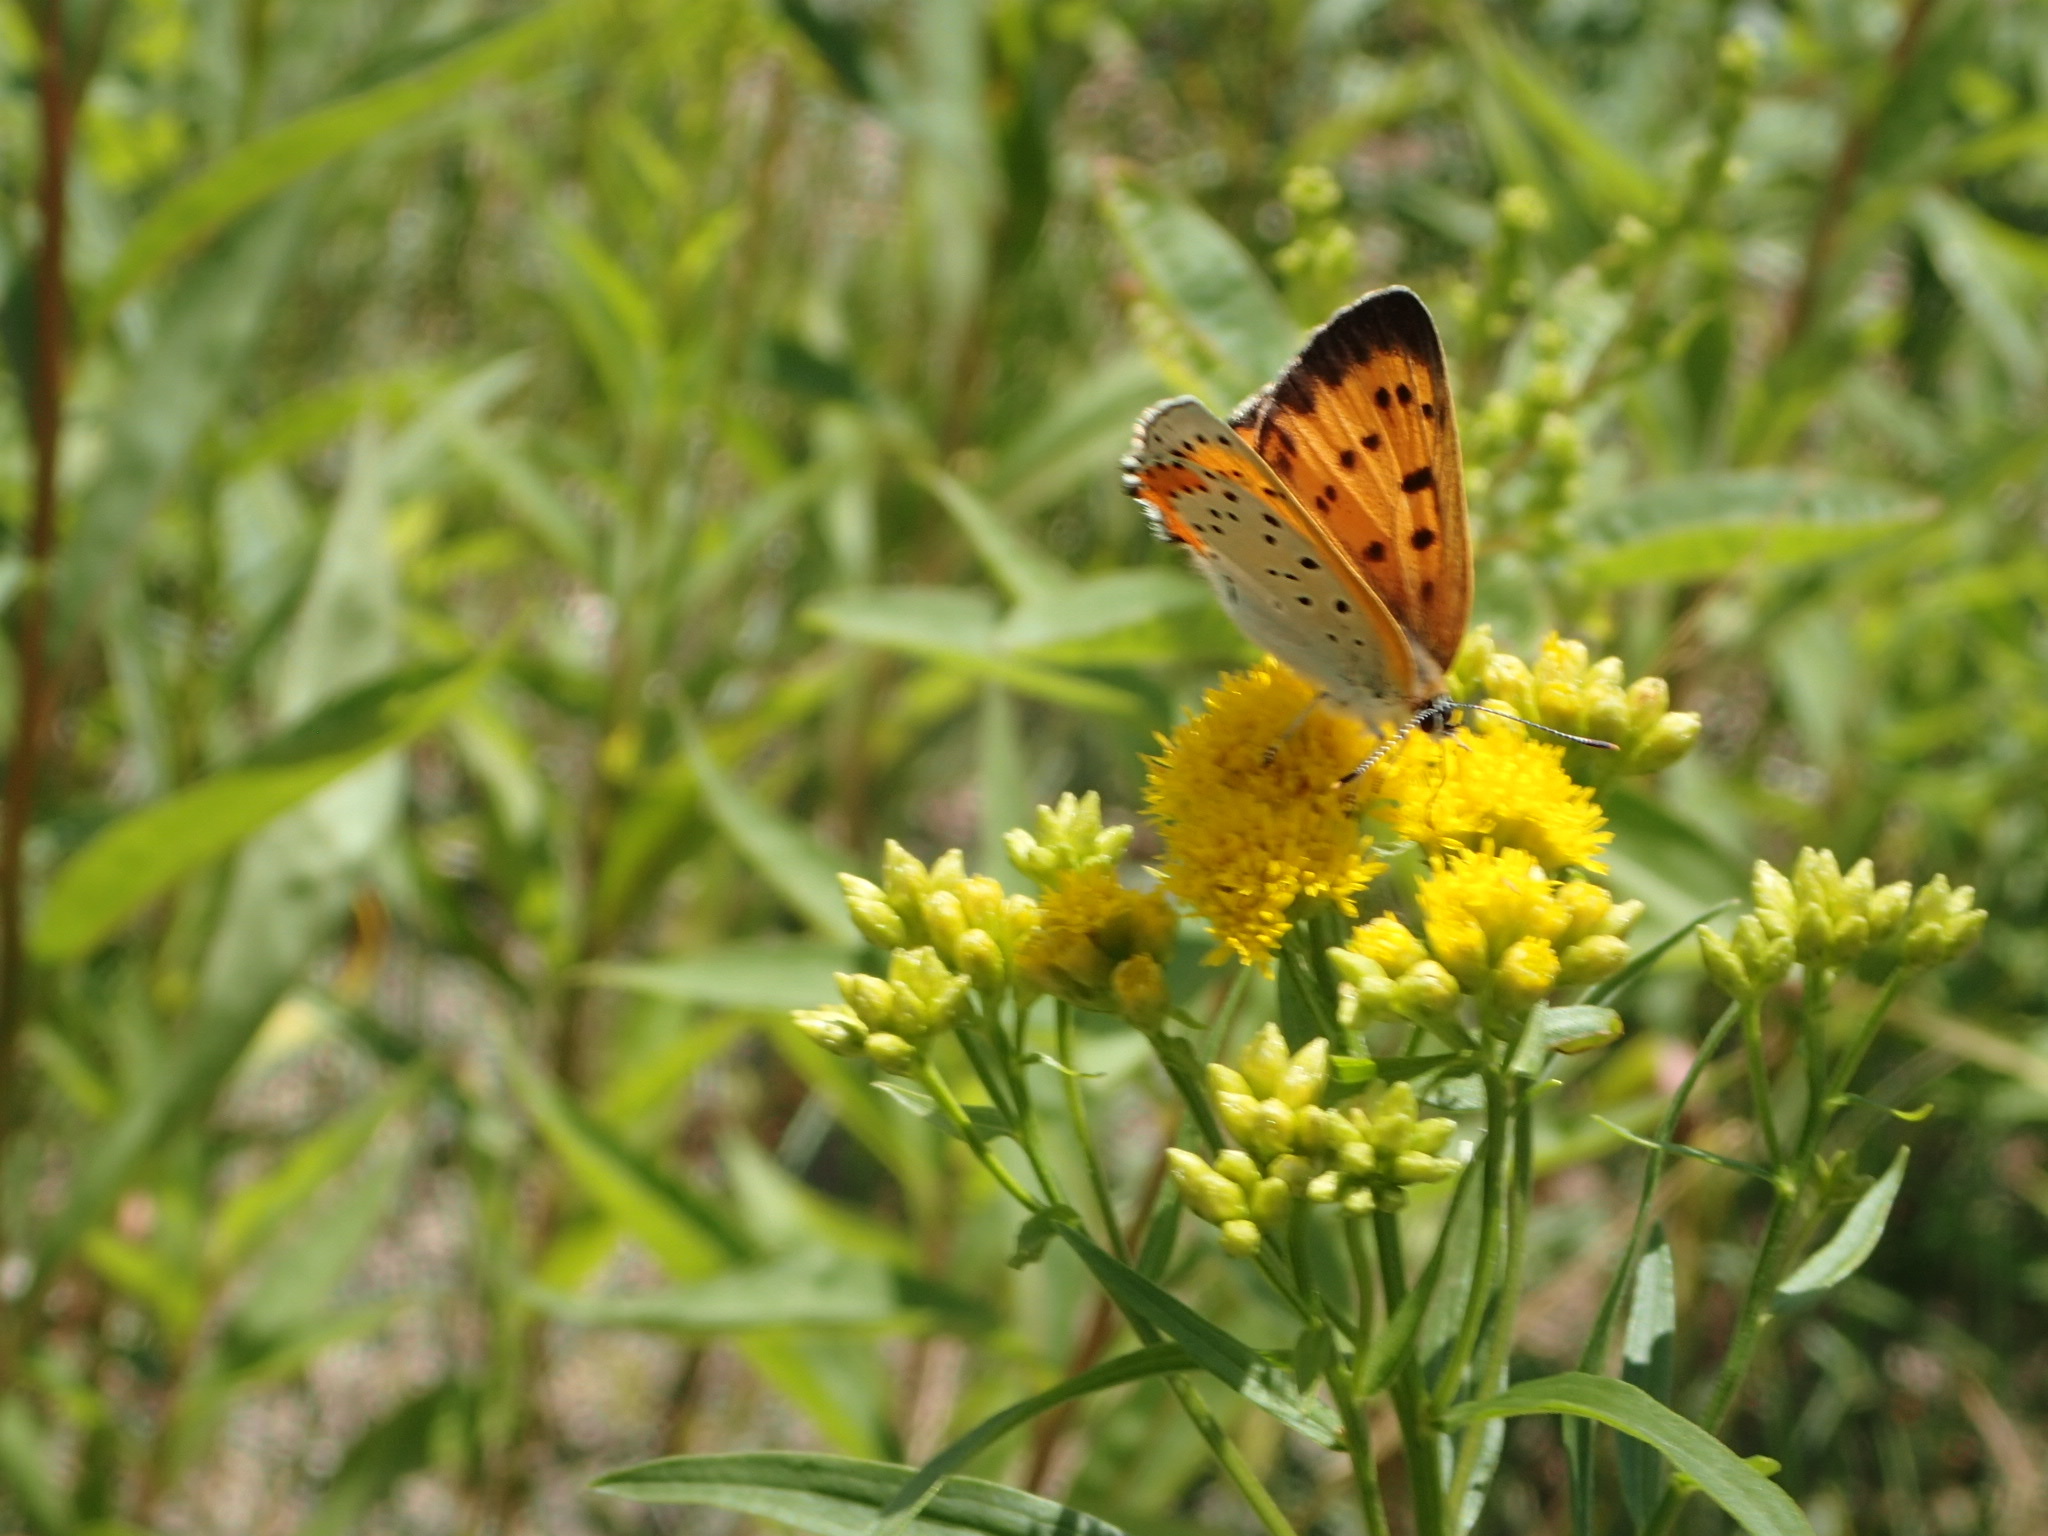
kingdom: Animalia
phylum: Arthropoda
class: Insecta
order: Lepidoptera
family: Lycaenidae
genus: Tharsalea
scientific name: Tharsalea hyllus
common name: Bronze copper
